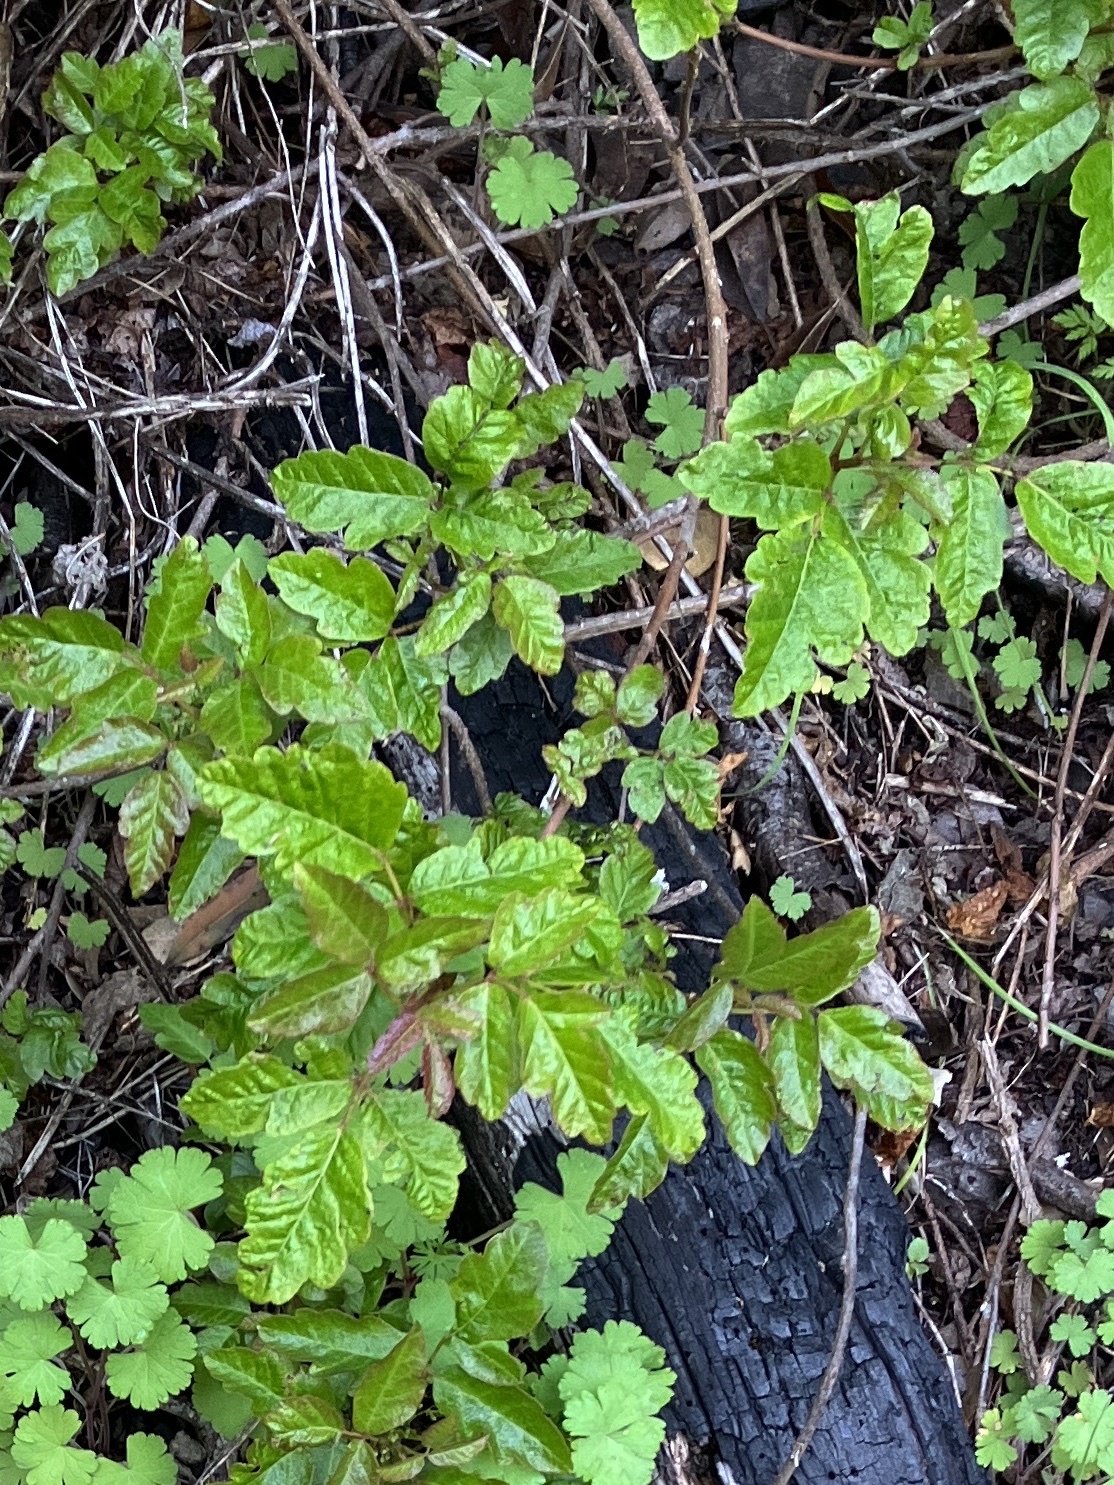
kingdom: Plantae
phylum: Tracheophyta
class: Magnoliopsida
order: Sapindales
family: Anacardiaceae
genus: Toxicodendron
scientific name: Toxicodendron diversilobum
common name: Pacific poison-oak
